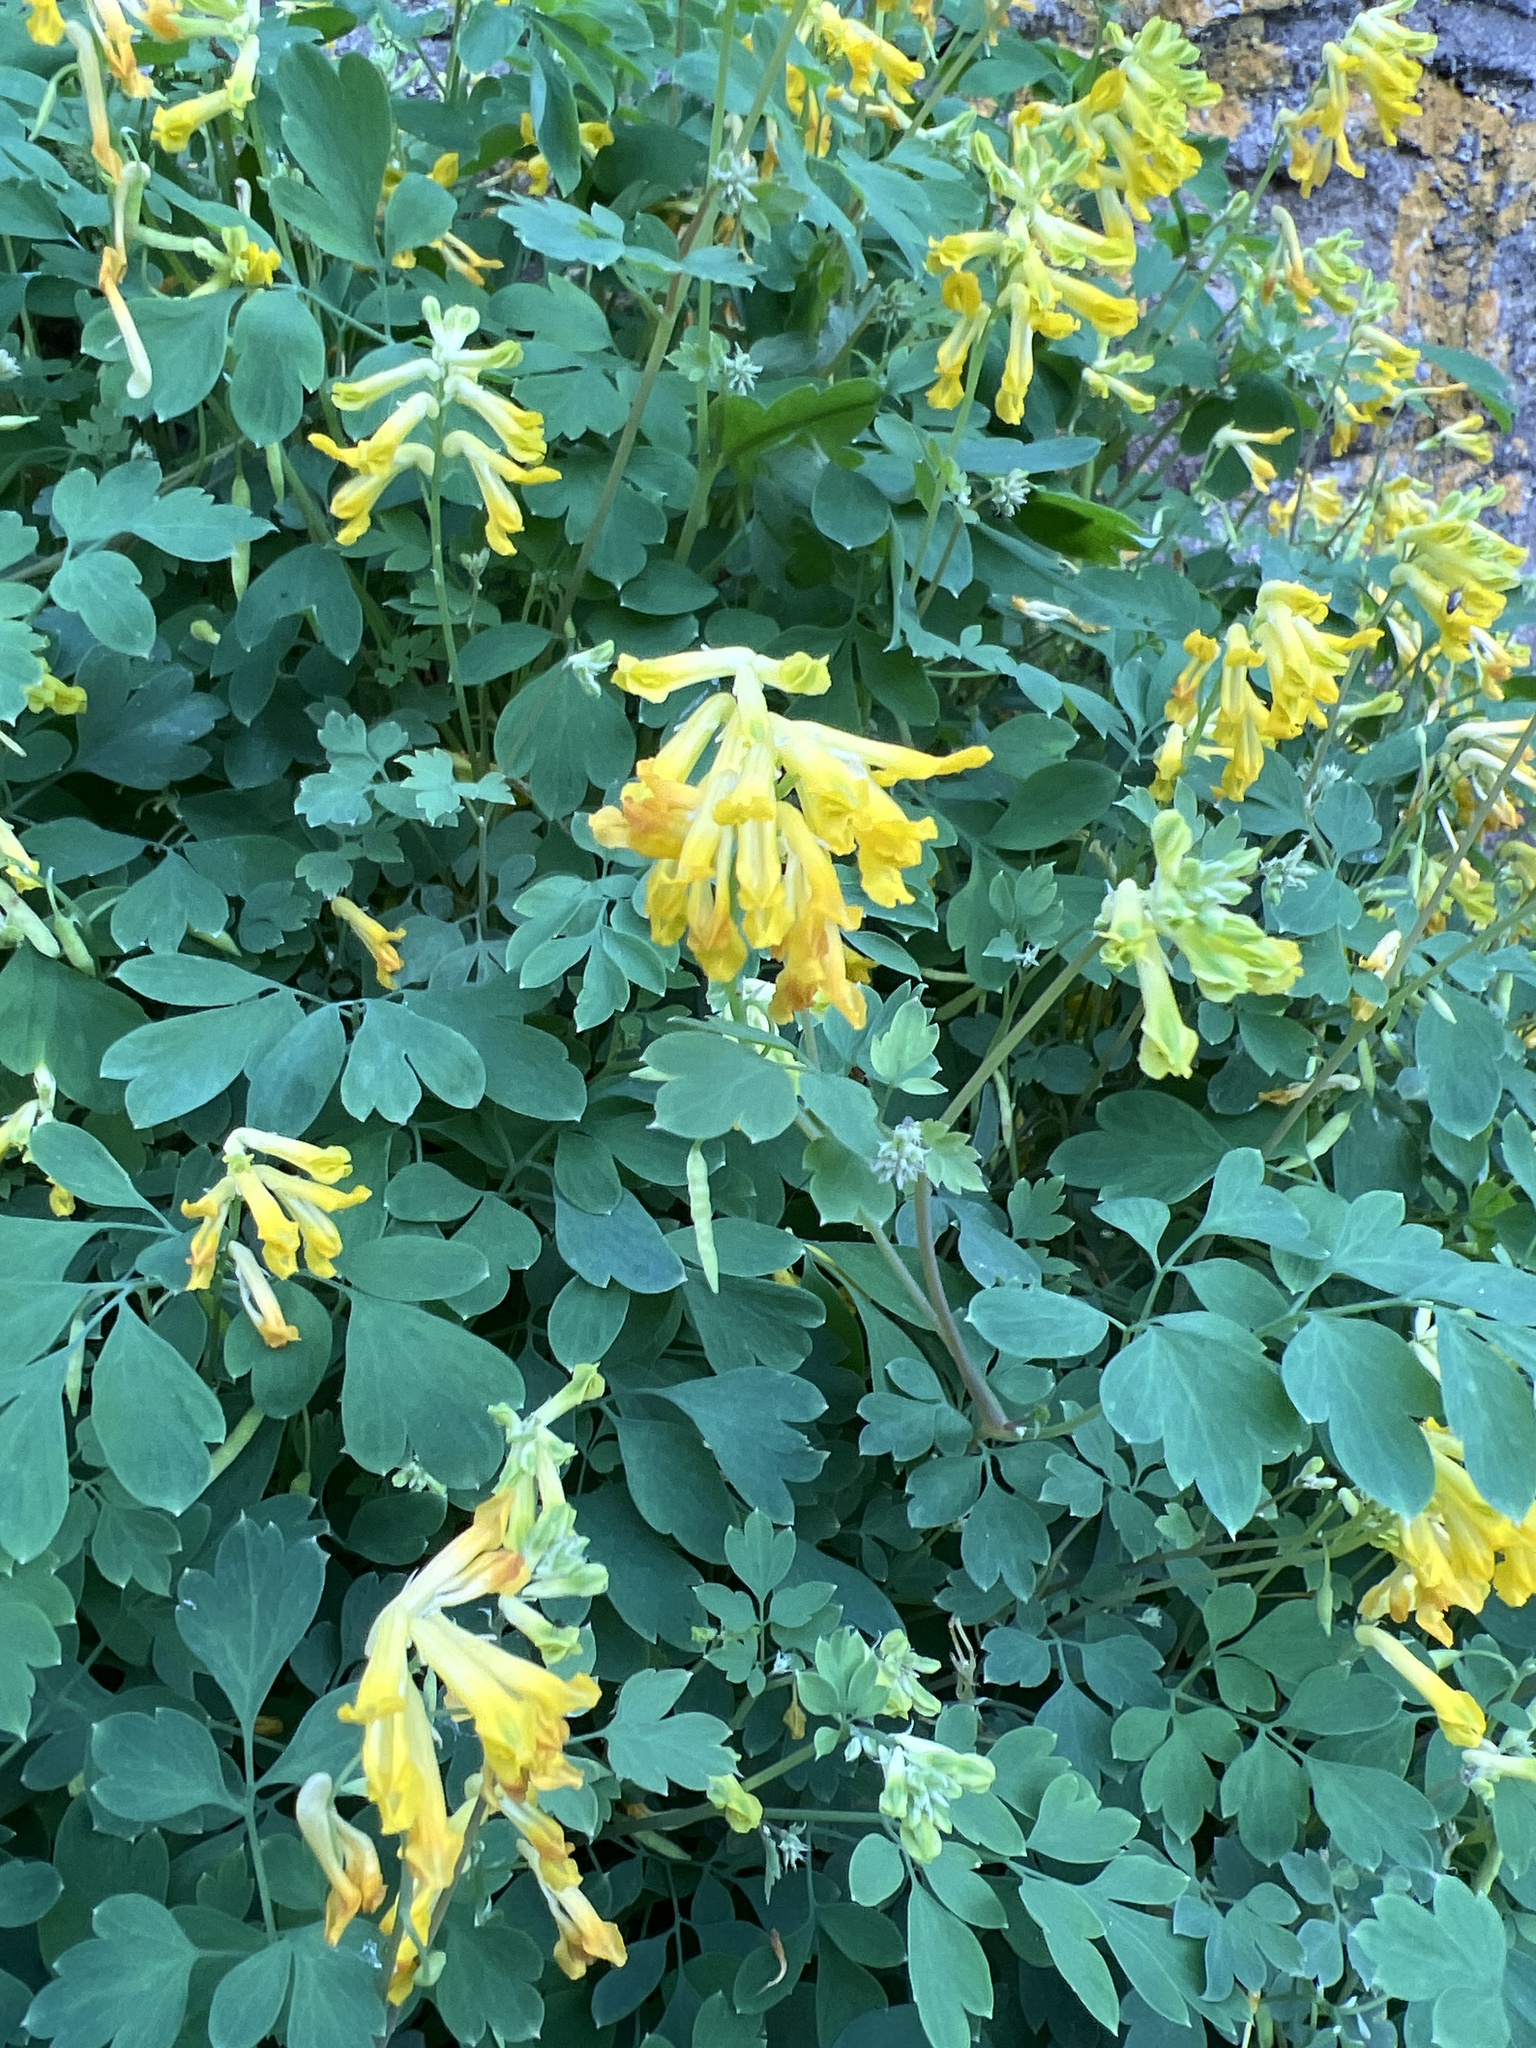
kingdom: Plantae
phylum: Tracheophyta
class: Magnoliopsida
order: Ranunculales
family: Papaveraceae
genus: Pseudofumaria
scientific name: Pseudofumaria lutea
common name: Yellow corydalis
